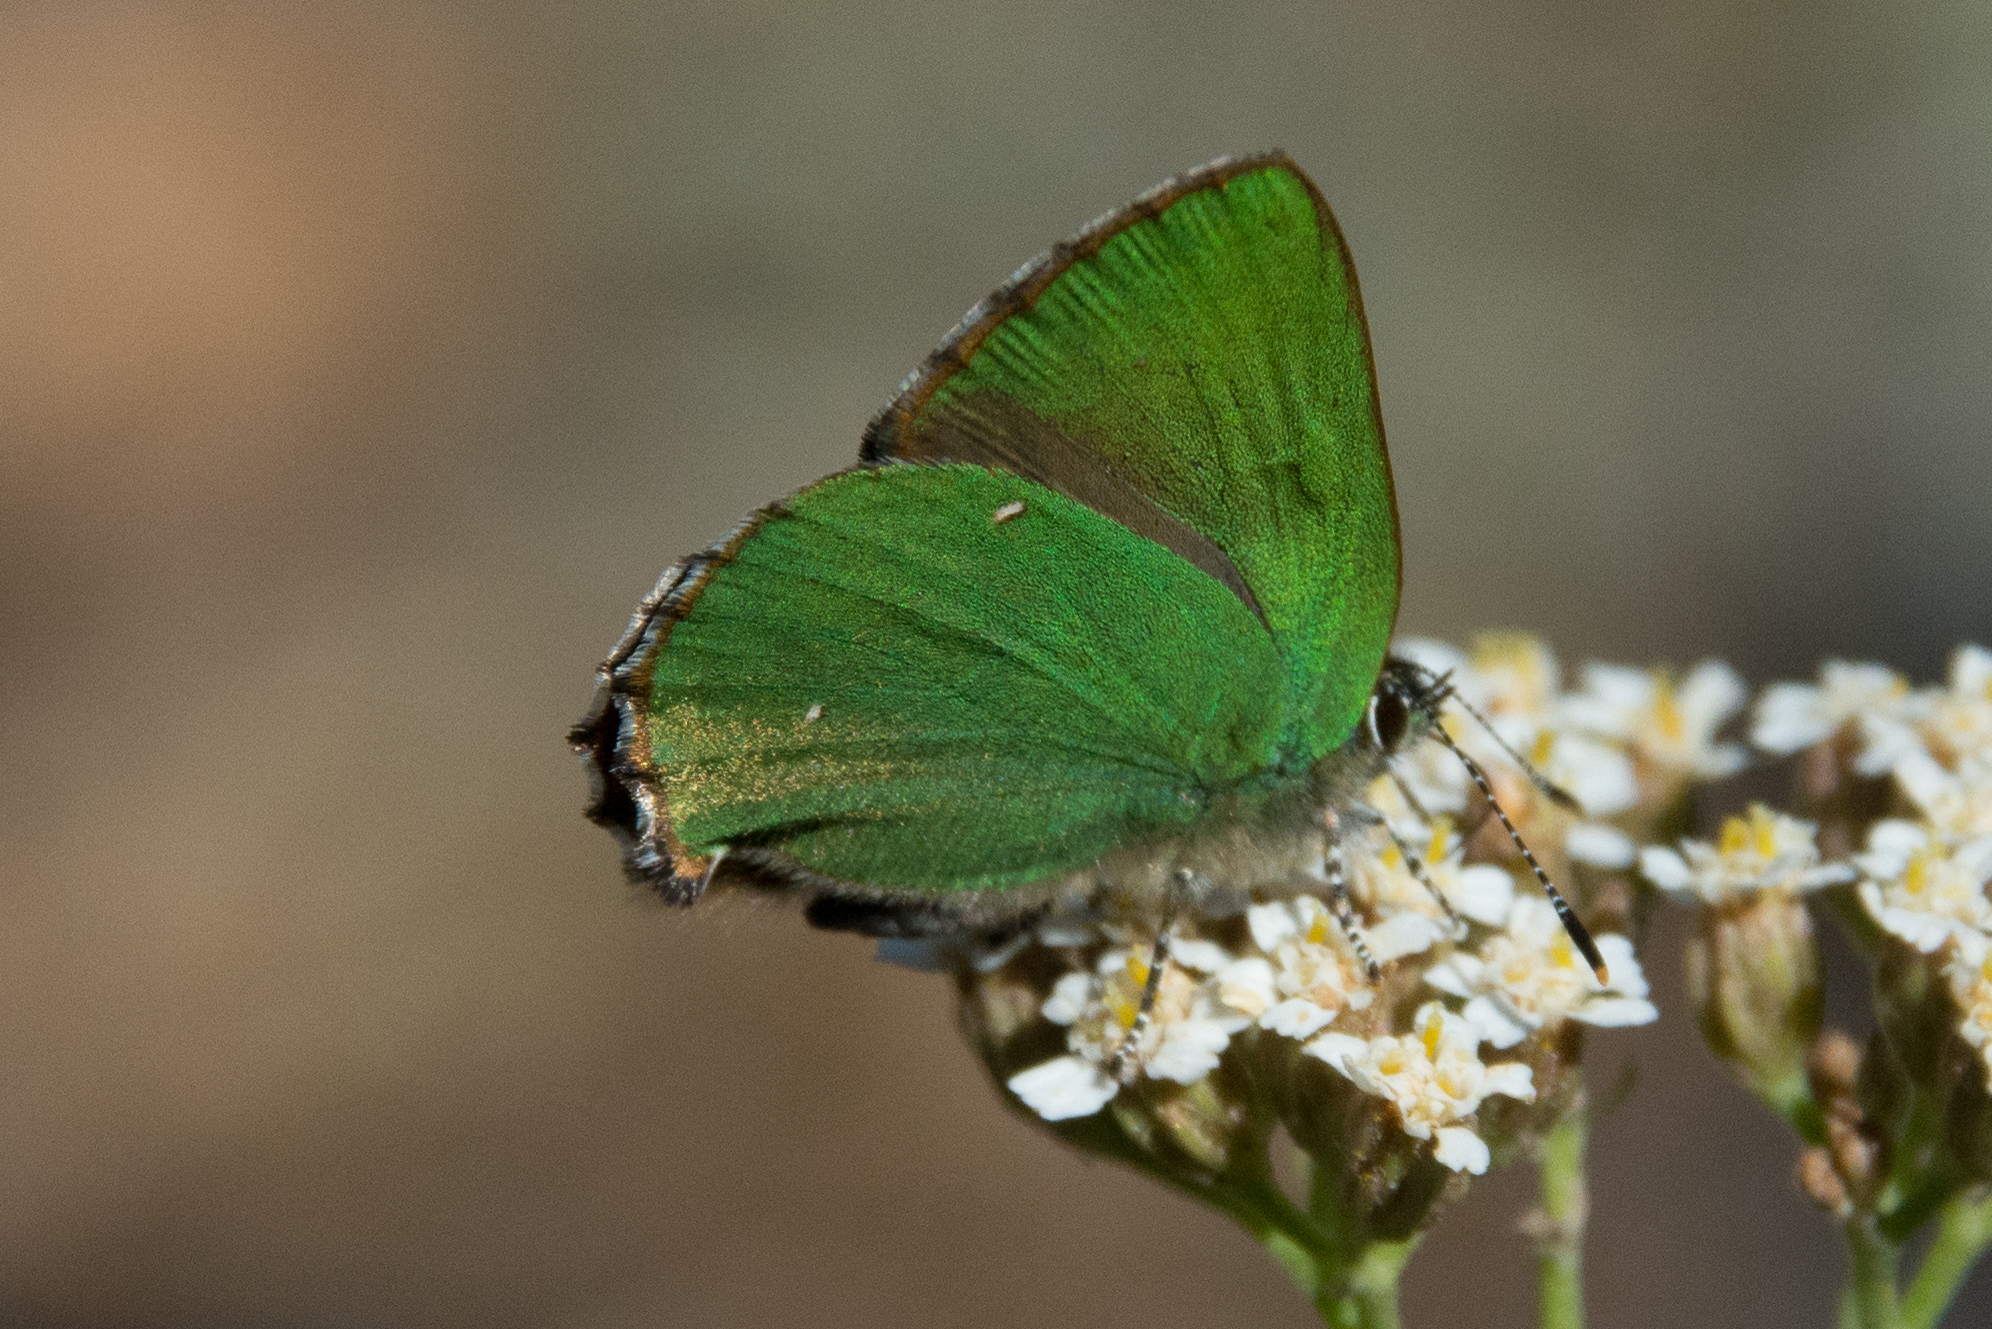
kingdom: Animalia
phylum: Arthropoda
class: Insecta
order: Lepidoptera
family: Lycaenidae
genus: Callophrys
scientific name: Callophrys rubi
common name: Green hairstreak
